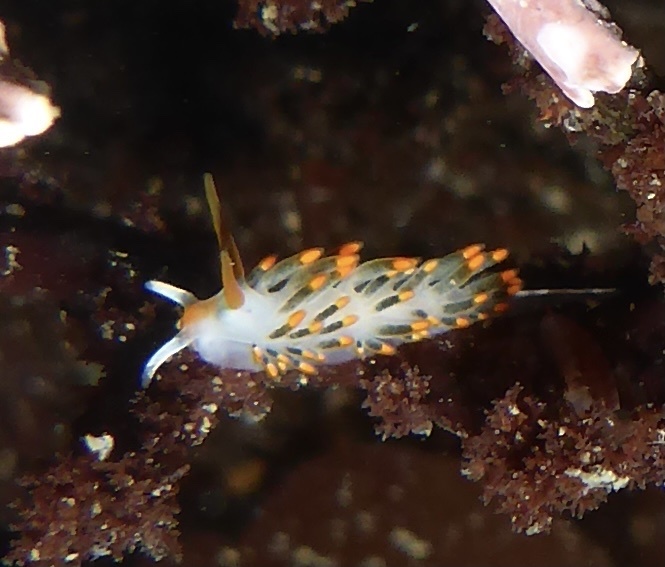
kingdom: Animalia
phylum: Mollusca
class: Gastropoda
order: Nudibranchia
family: Trinchesiidae
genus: Diaphoreolis
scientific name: Diaphoreolis lagunae
